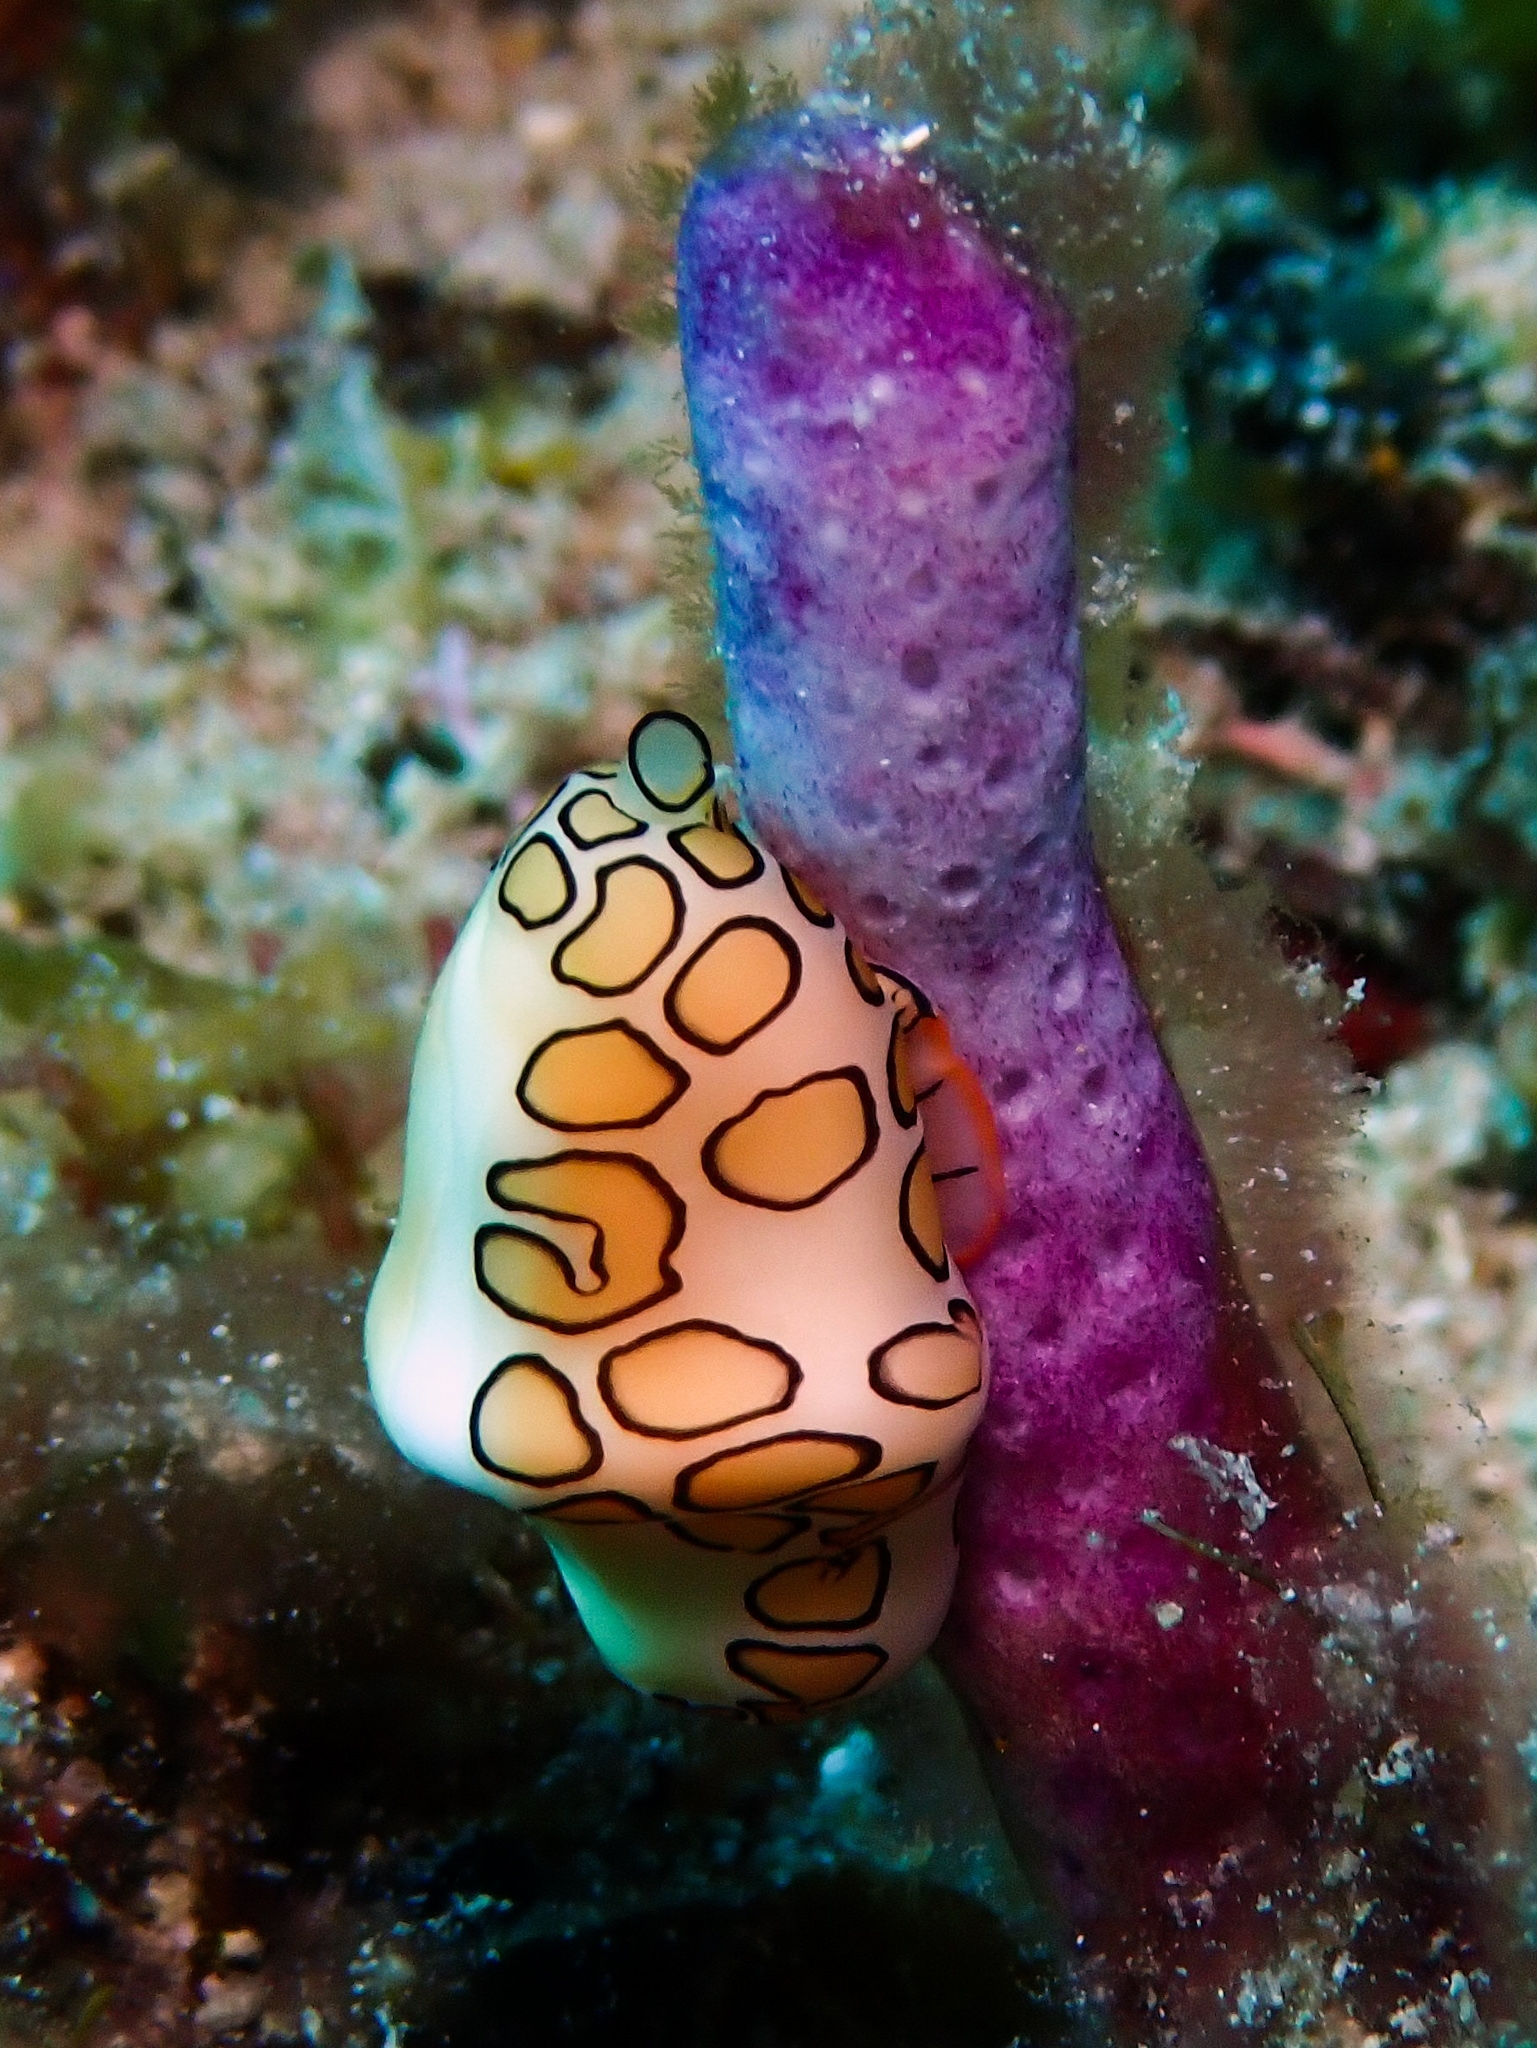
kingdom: Animalia
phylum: Mollusca
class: Gastropoda
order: Littorinimorpha
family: Ovulidae
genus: Cyphoma
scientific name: Cyphoma gibbosum
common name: Flamingo tongue
